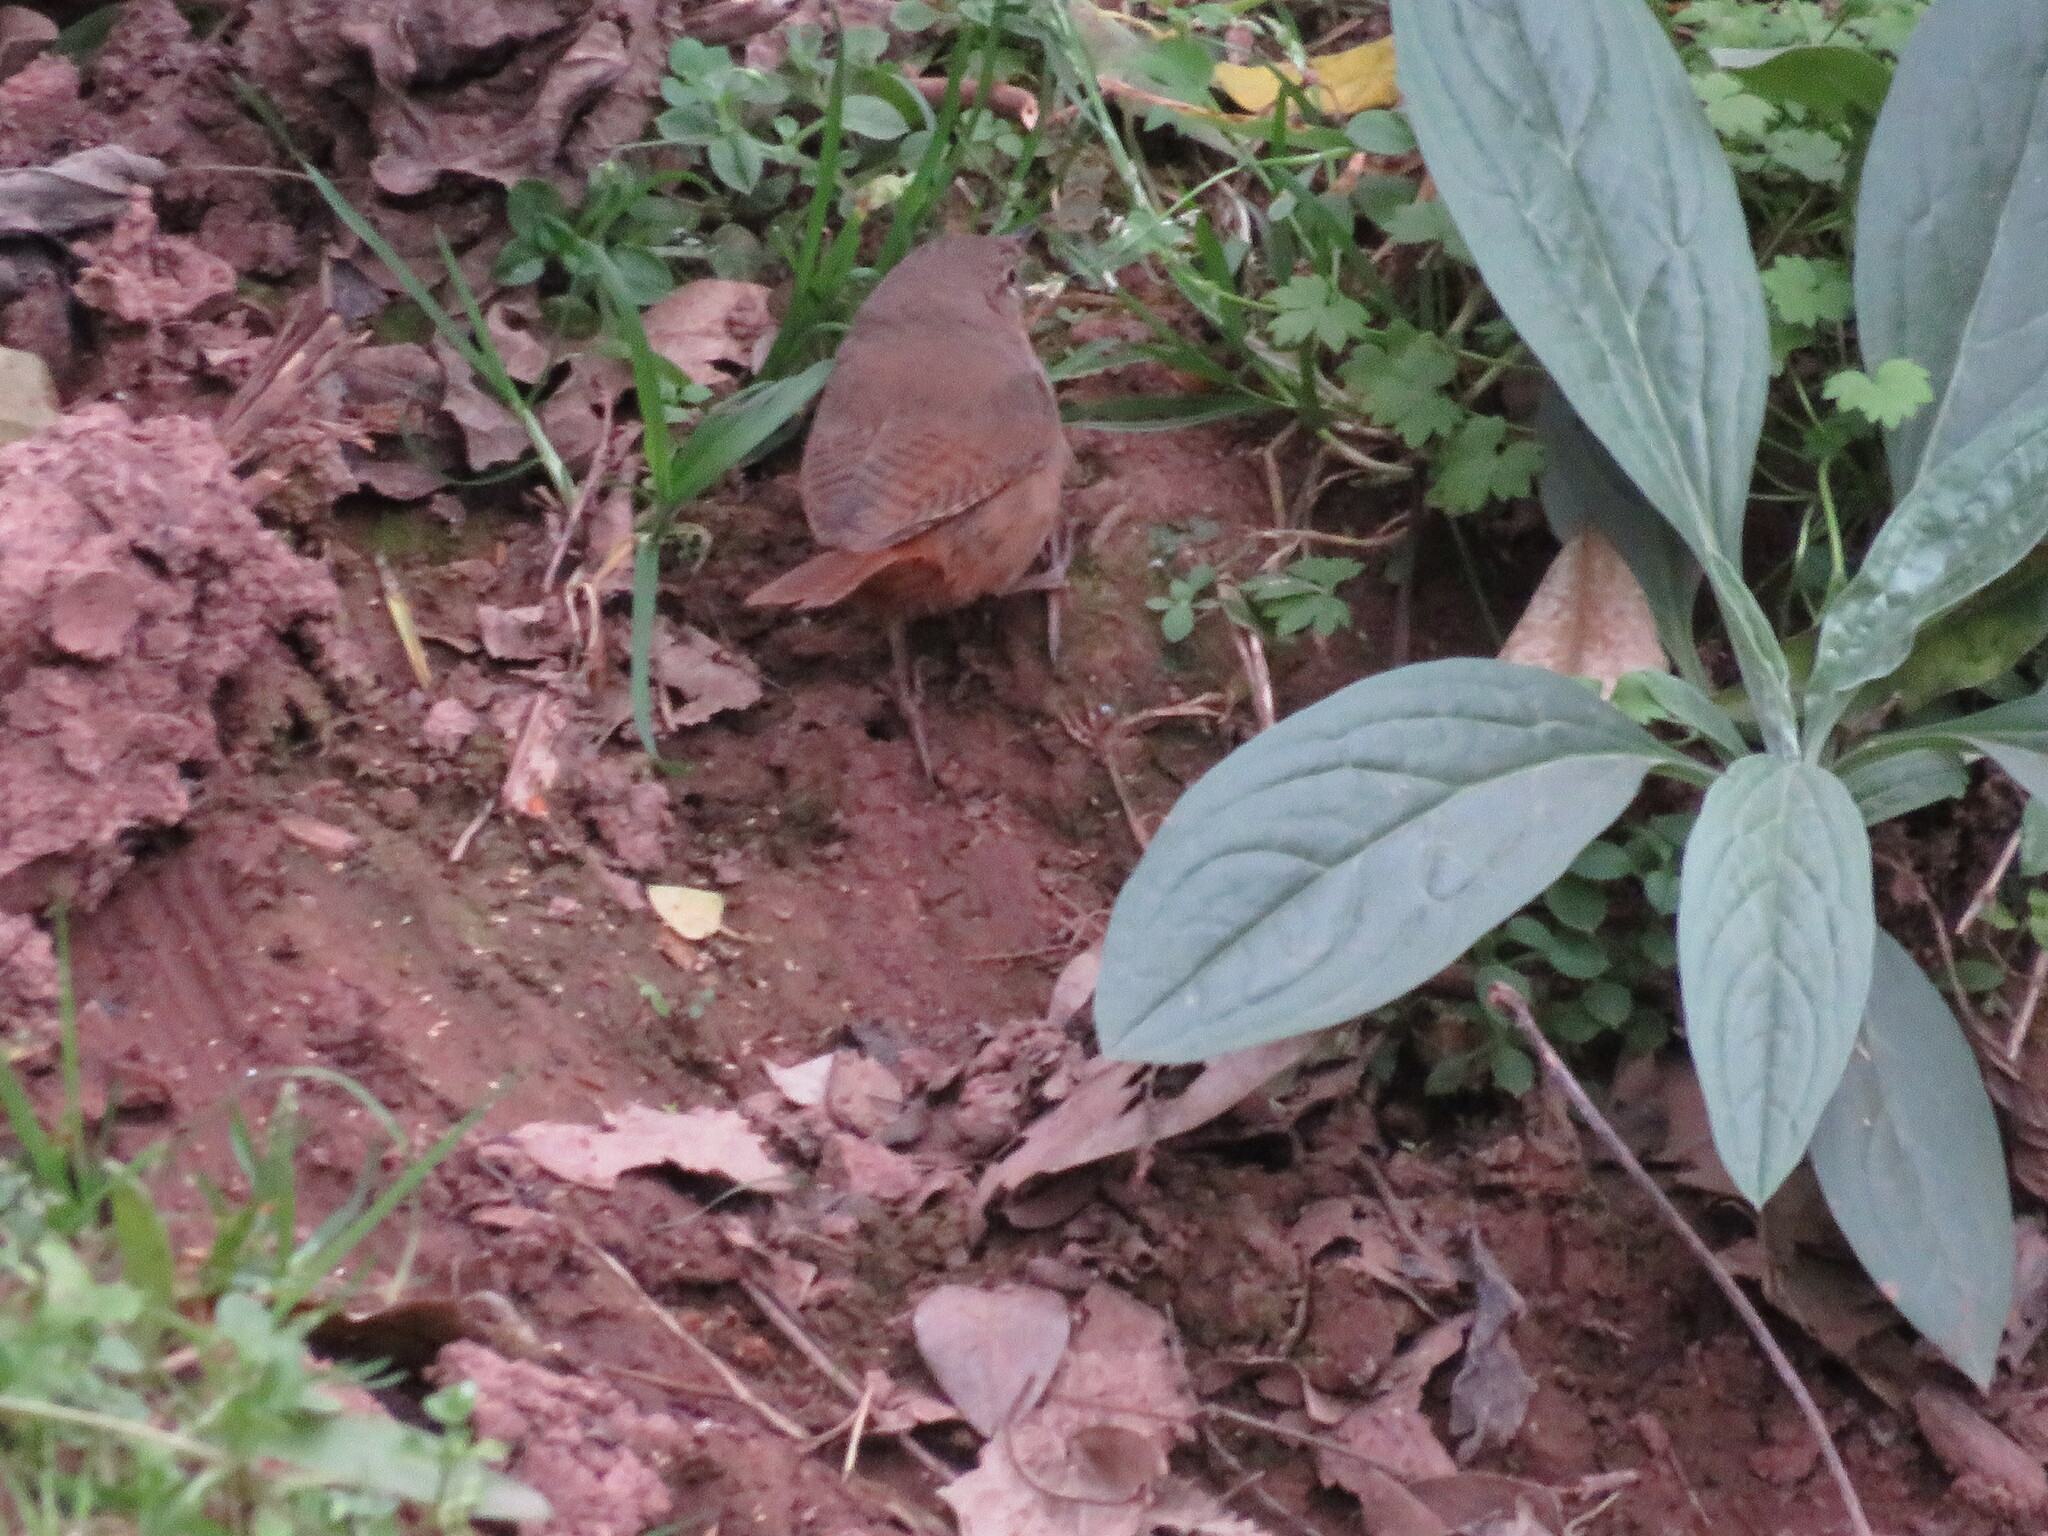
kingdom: Animalia
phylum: Chordata
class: Aves
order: Passeriformes
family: Troglodytidae
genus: Troglodytes
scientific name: Troglodytes aedon
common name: House wren
